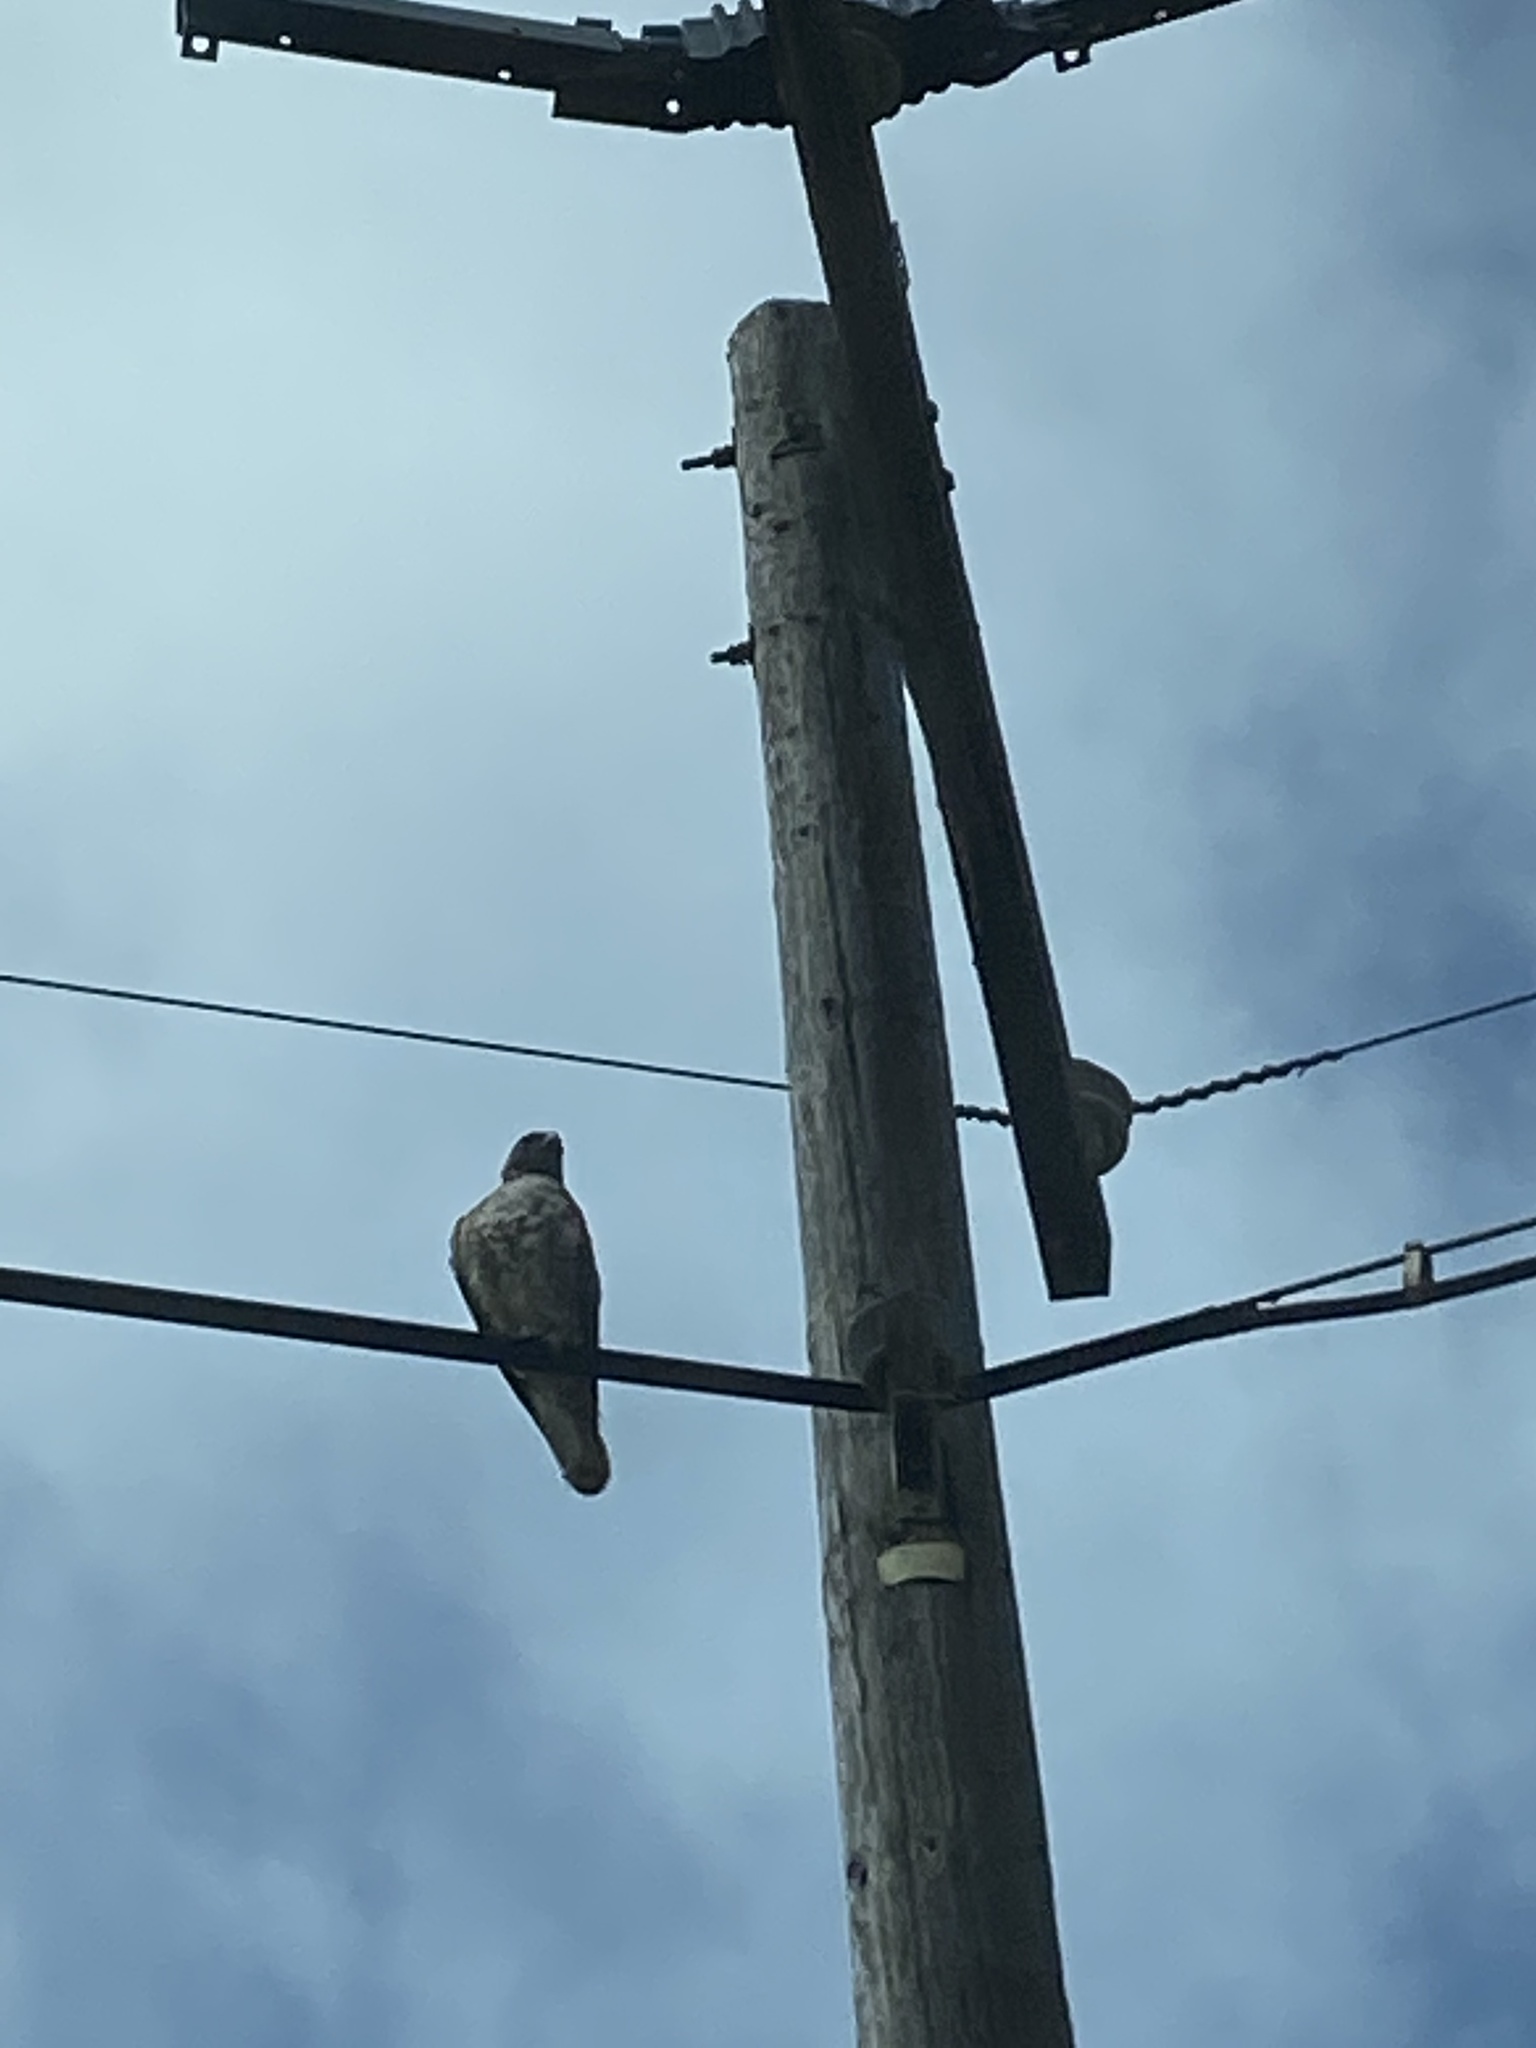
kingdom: Animalia
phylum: Chordata
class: Aves
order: Accipitriformes
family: Accipitridae
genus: Buteo
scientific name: Buteo jamaicensis
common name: Red-tailed hawk
